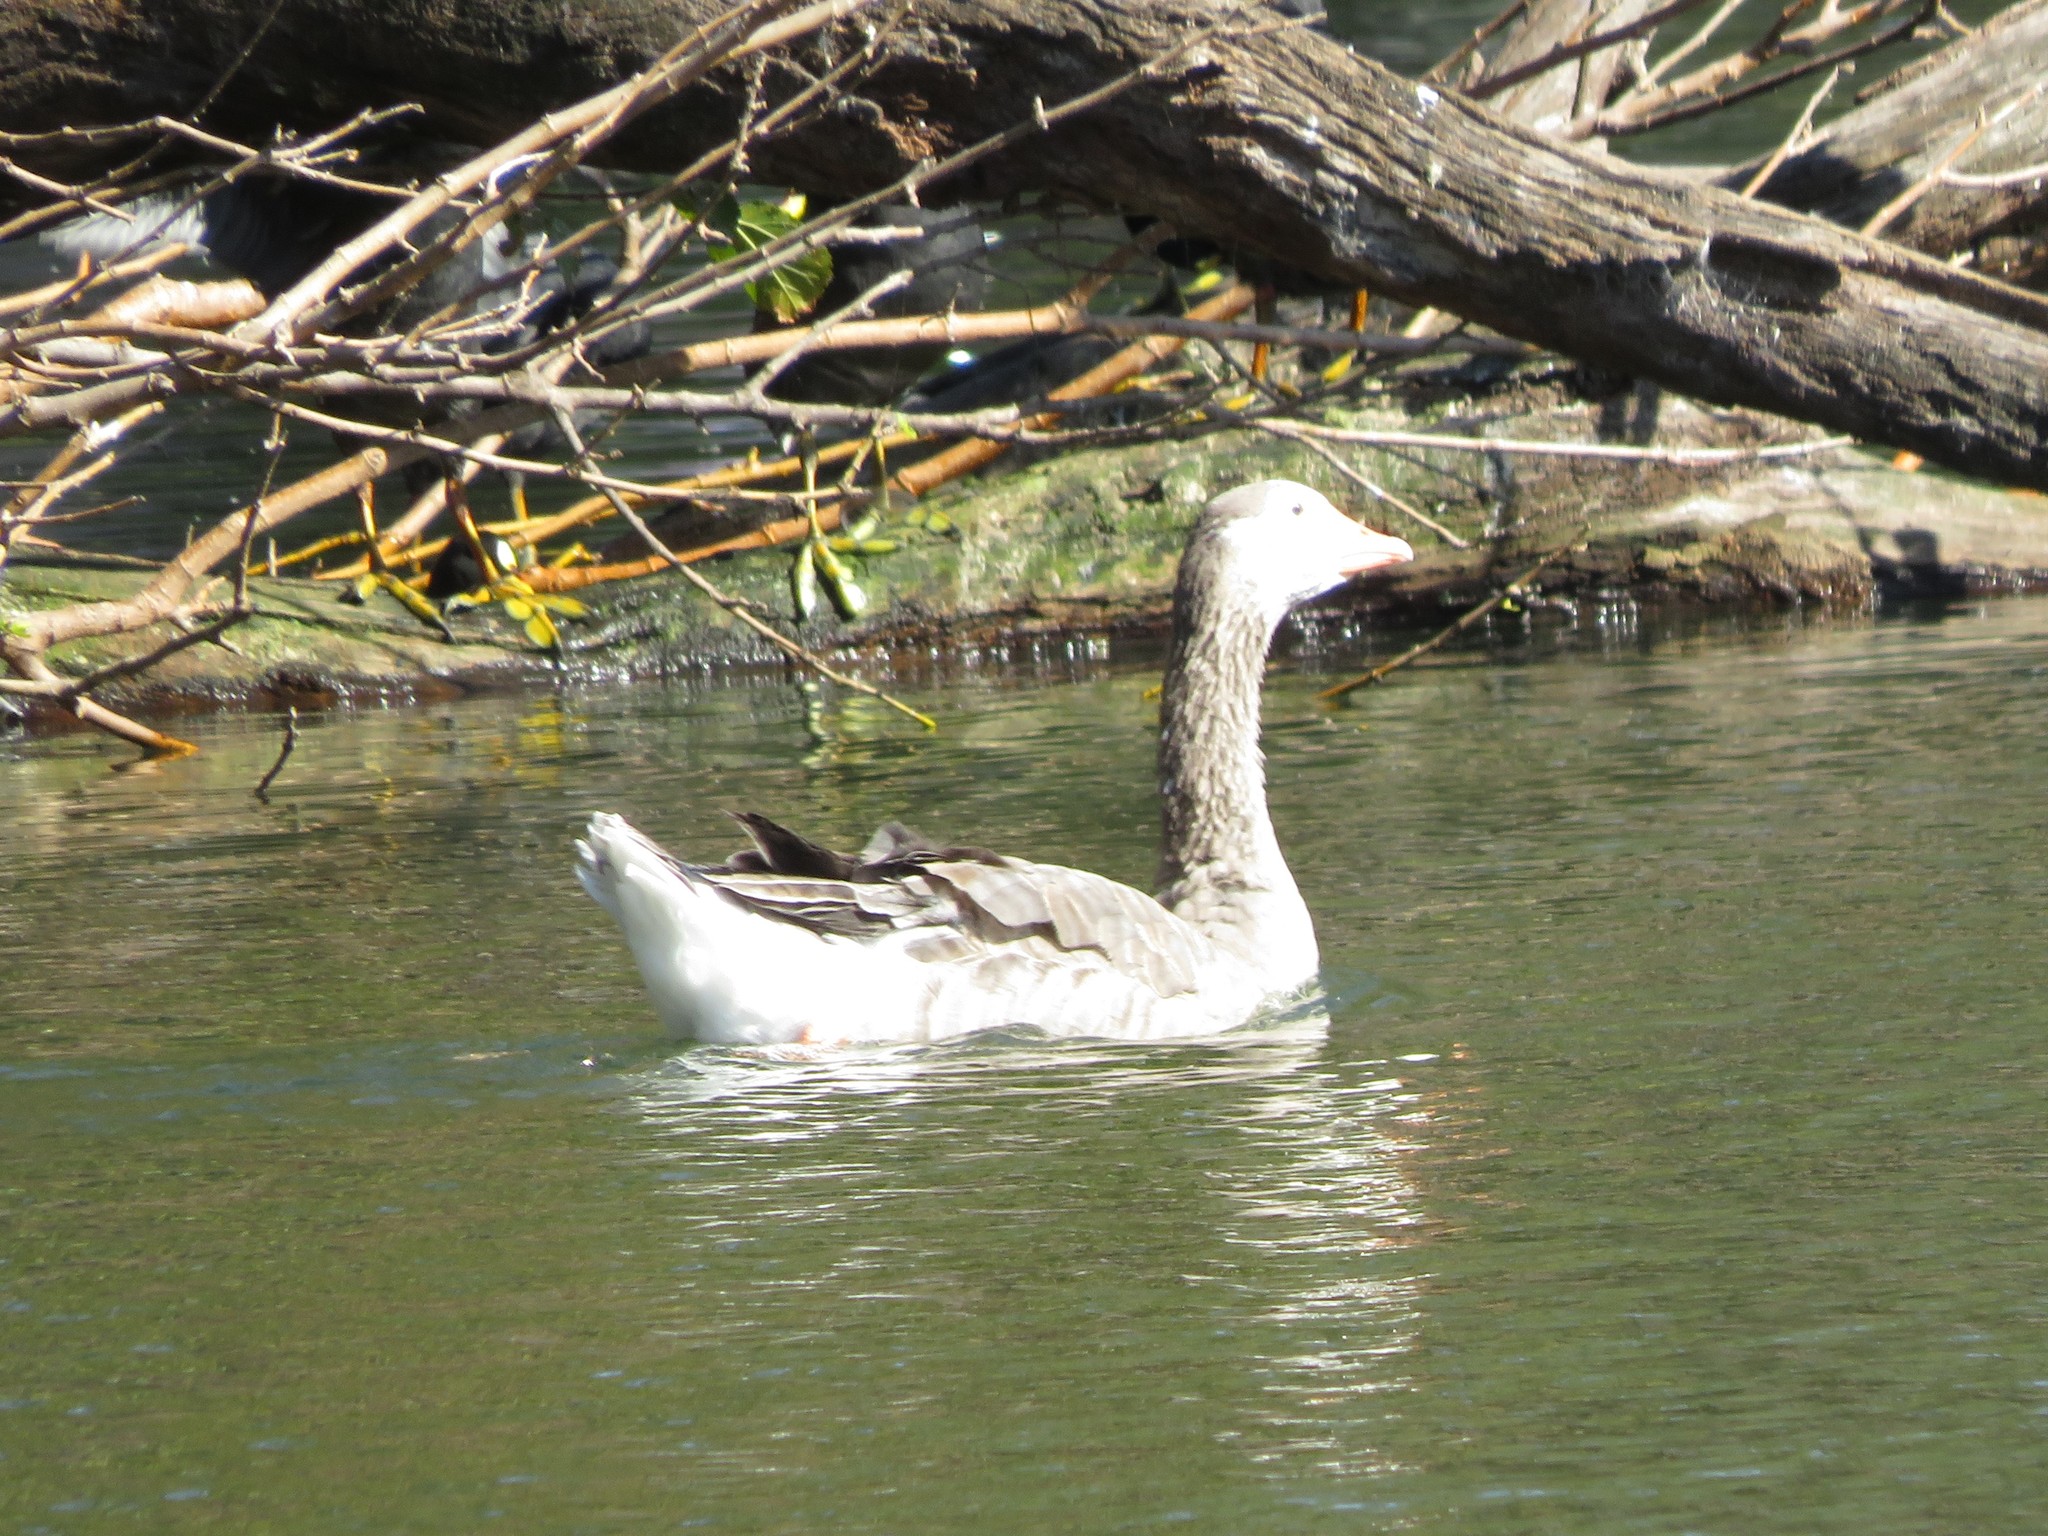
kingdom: Animalia
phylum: Chordata
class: Aves
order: Anseriformes
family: Anatidae
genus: Anser
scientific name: Anser anser
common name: Greylag goose
